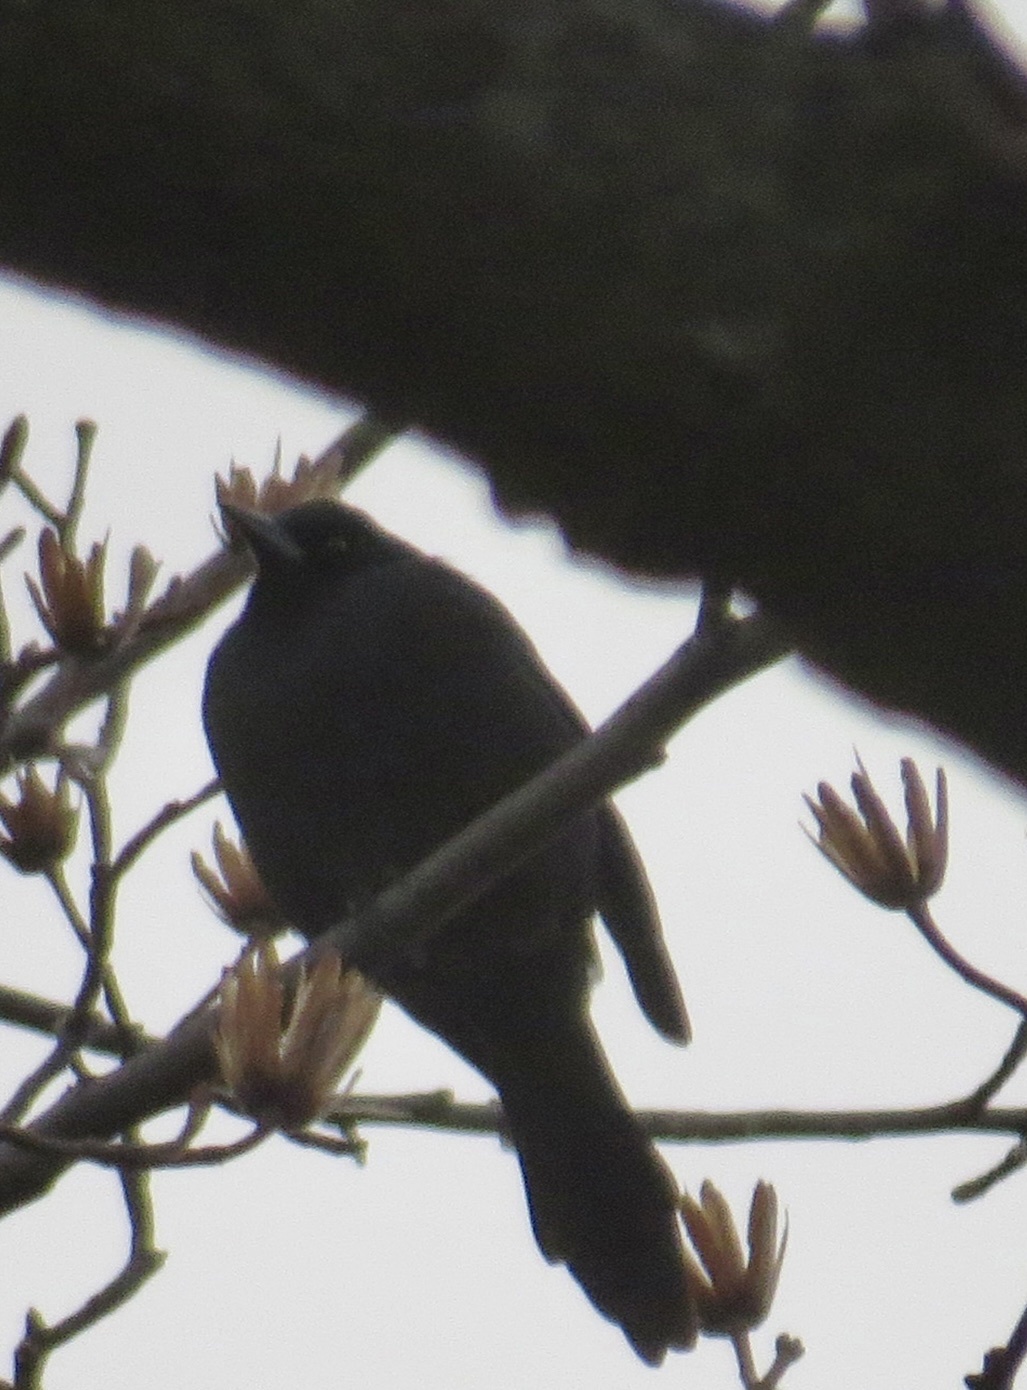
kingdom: Animalia
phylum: Chordata
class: Aves
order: Passeriformes
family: Icteridae
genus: Quiscalus
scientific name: Quiscalus quiscula
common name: Common grackle
